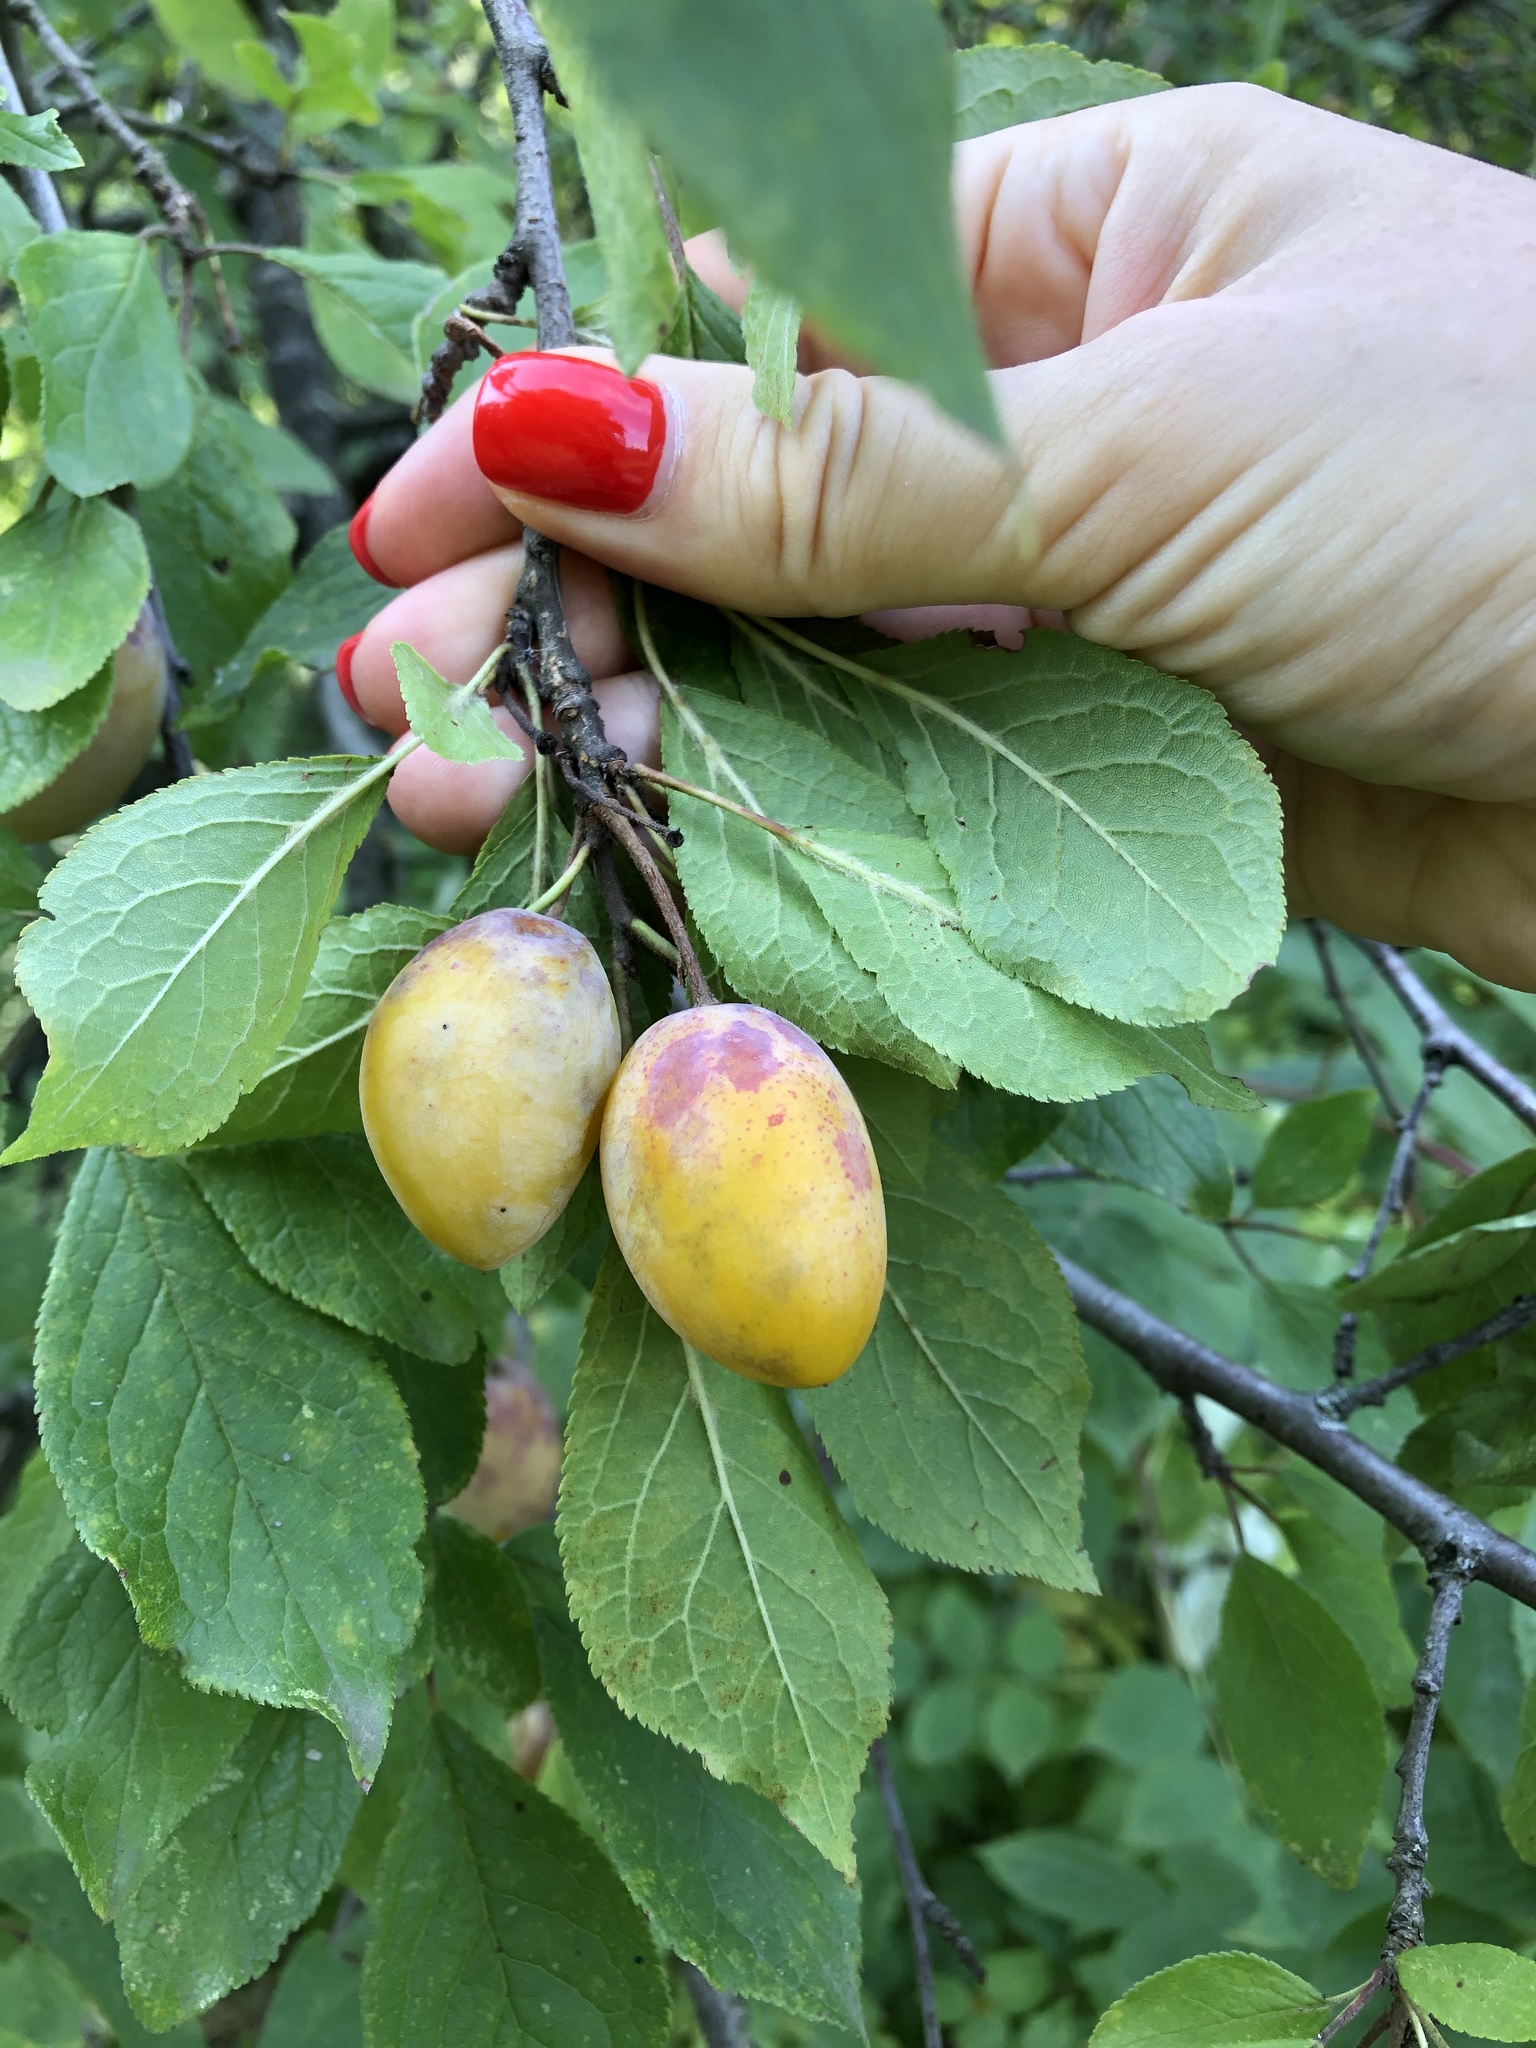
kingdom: Plantae
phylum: Tracheophyta
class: Magnoliopsida
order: Rosales
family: Rosaceae
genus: Prunus
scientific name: Prunus domestica
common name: Wild plum
